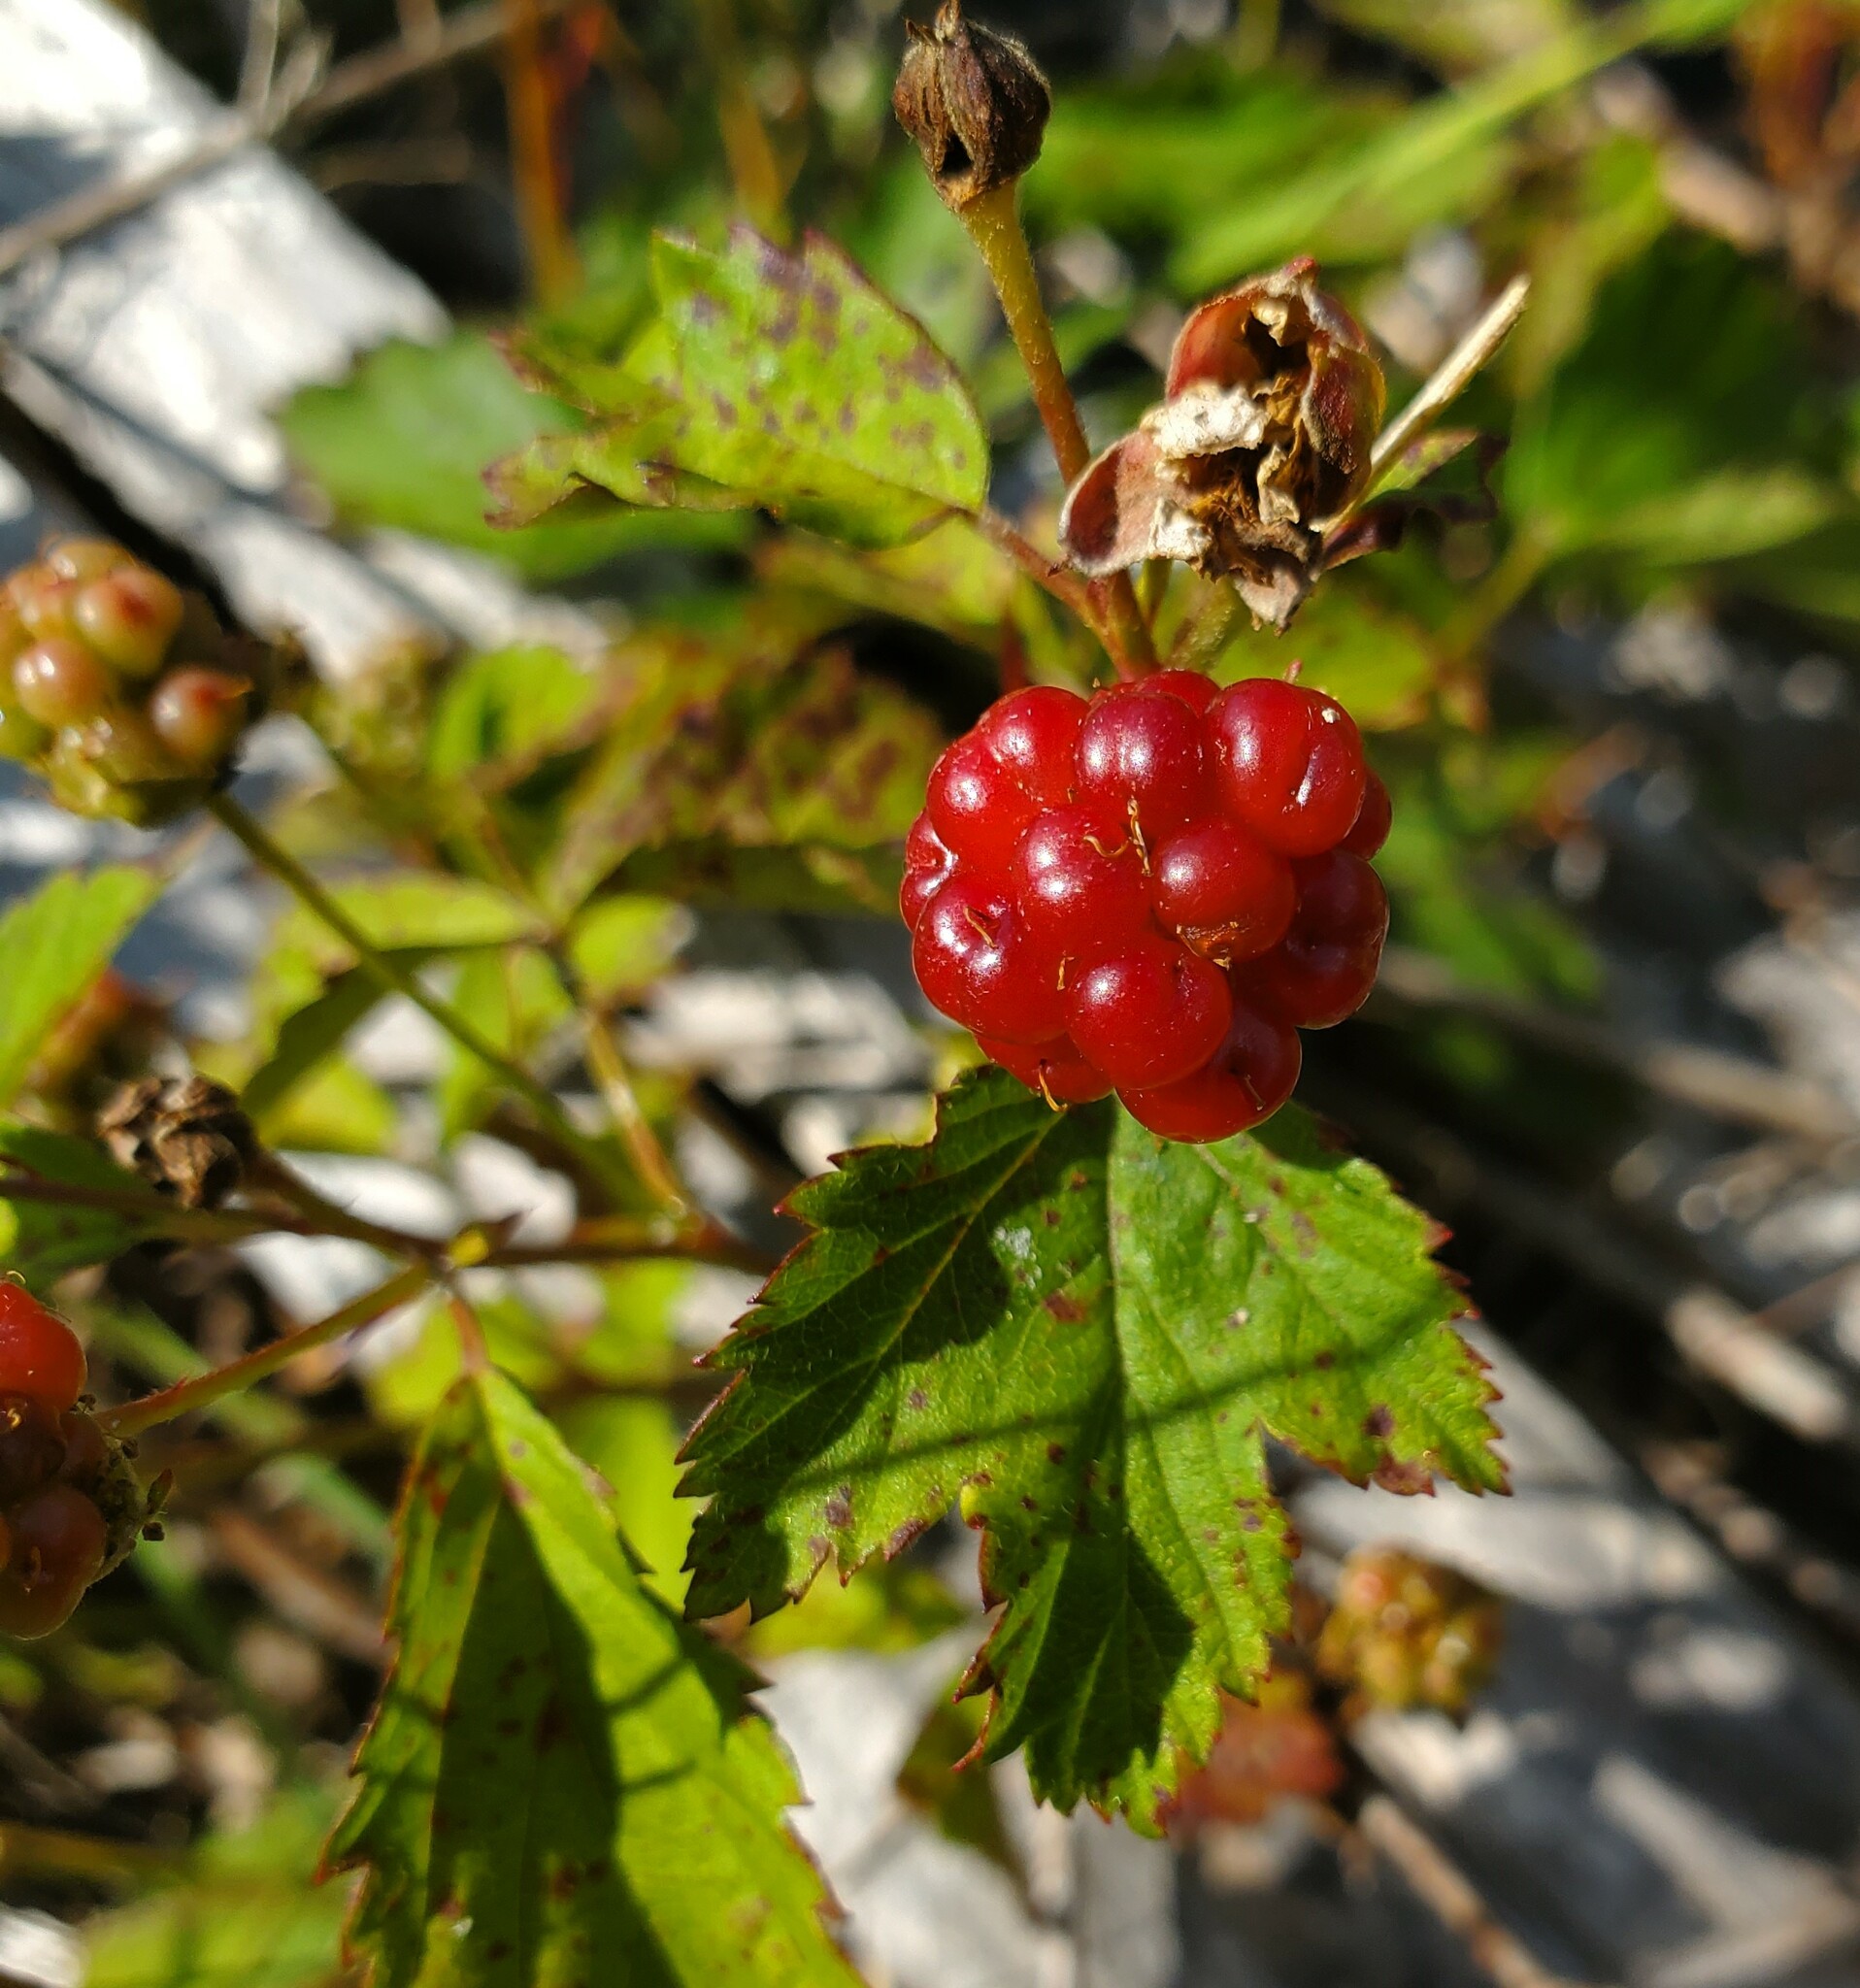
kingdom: Plantae
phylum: Tracheophyta
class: Magnoliopsida
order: Rosales
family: Rosaceae
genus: Rubus
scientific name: Rubus flagellaris
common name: American dewberry
